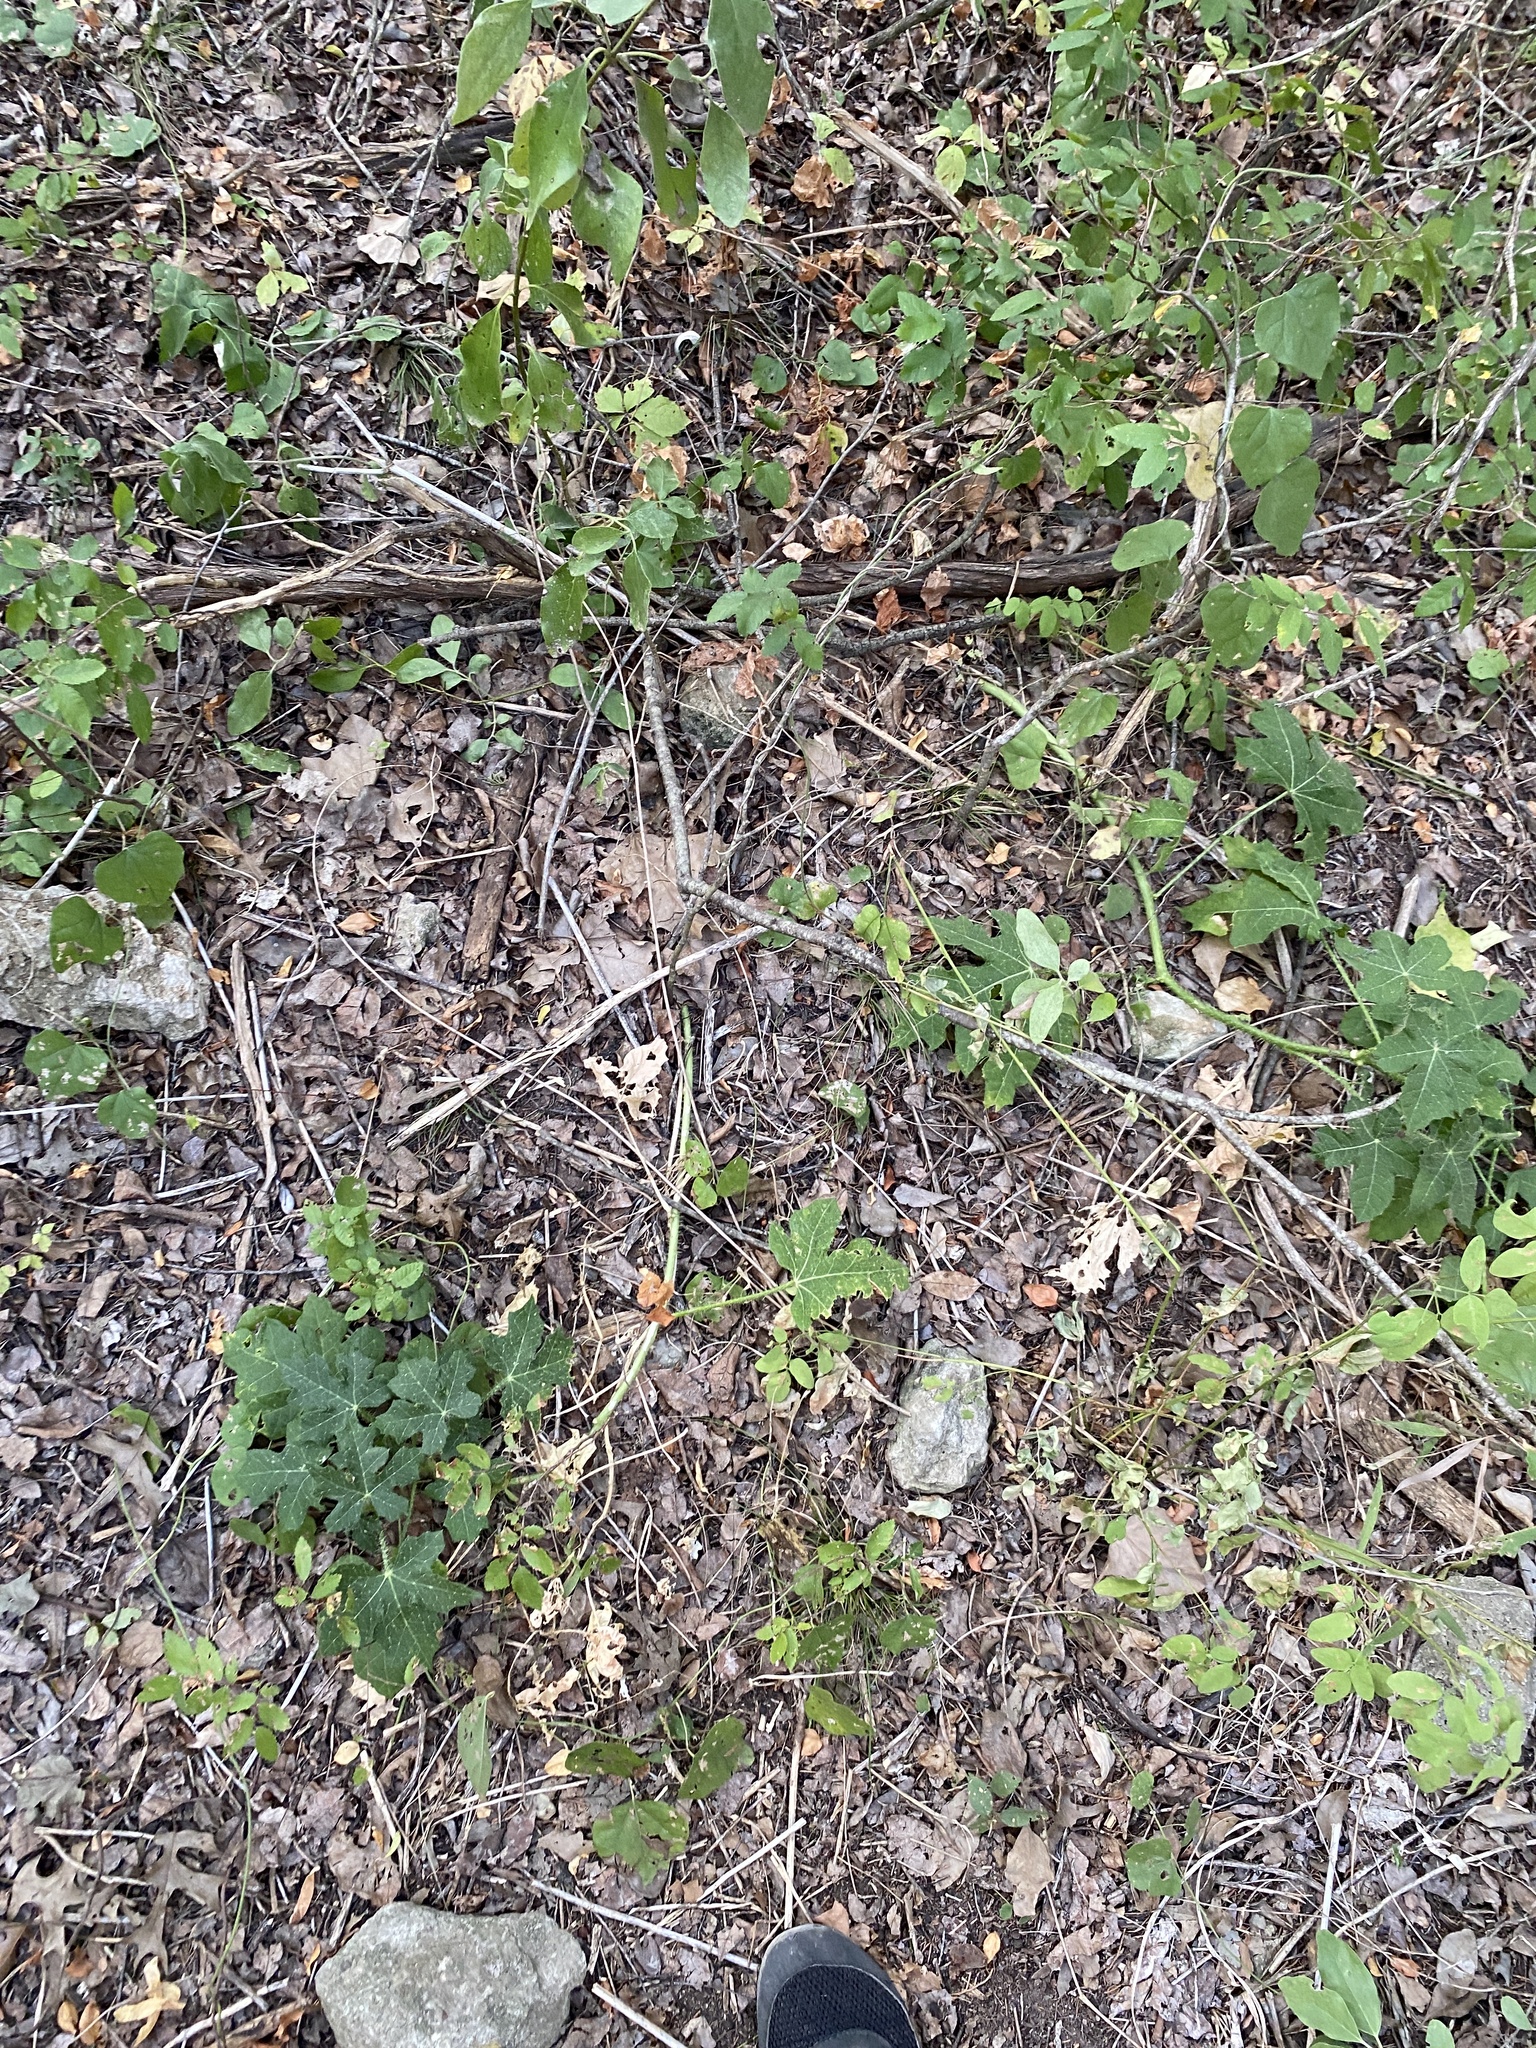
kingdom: Plantae
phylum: Tracheophyta
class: Magnoliopsida
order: Malpighiales
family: Euphorbiaceae
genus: Cnidoscolus
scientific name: Cnidoscolus texanus
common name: Texas bull-nettle
